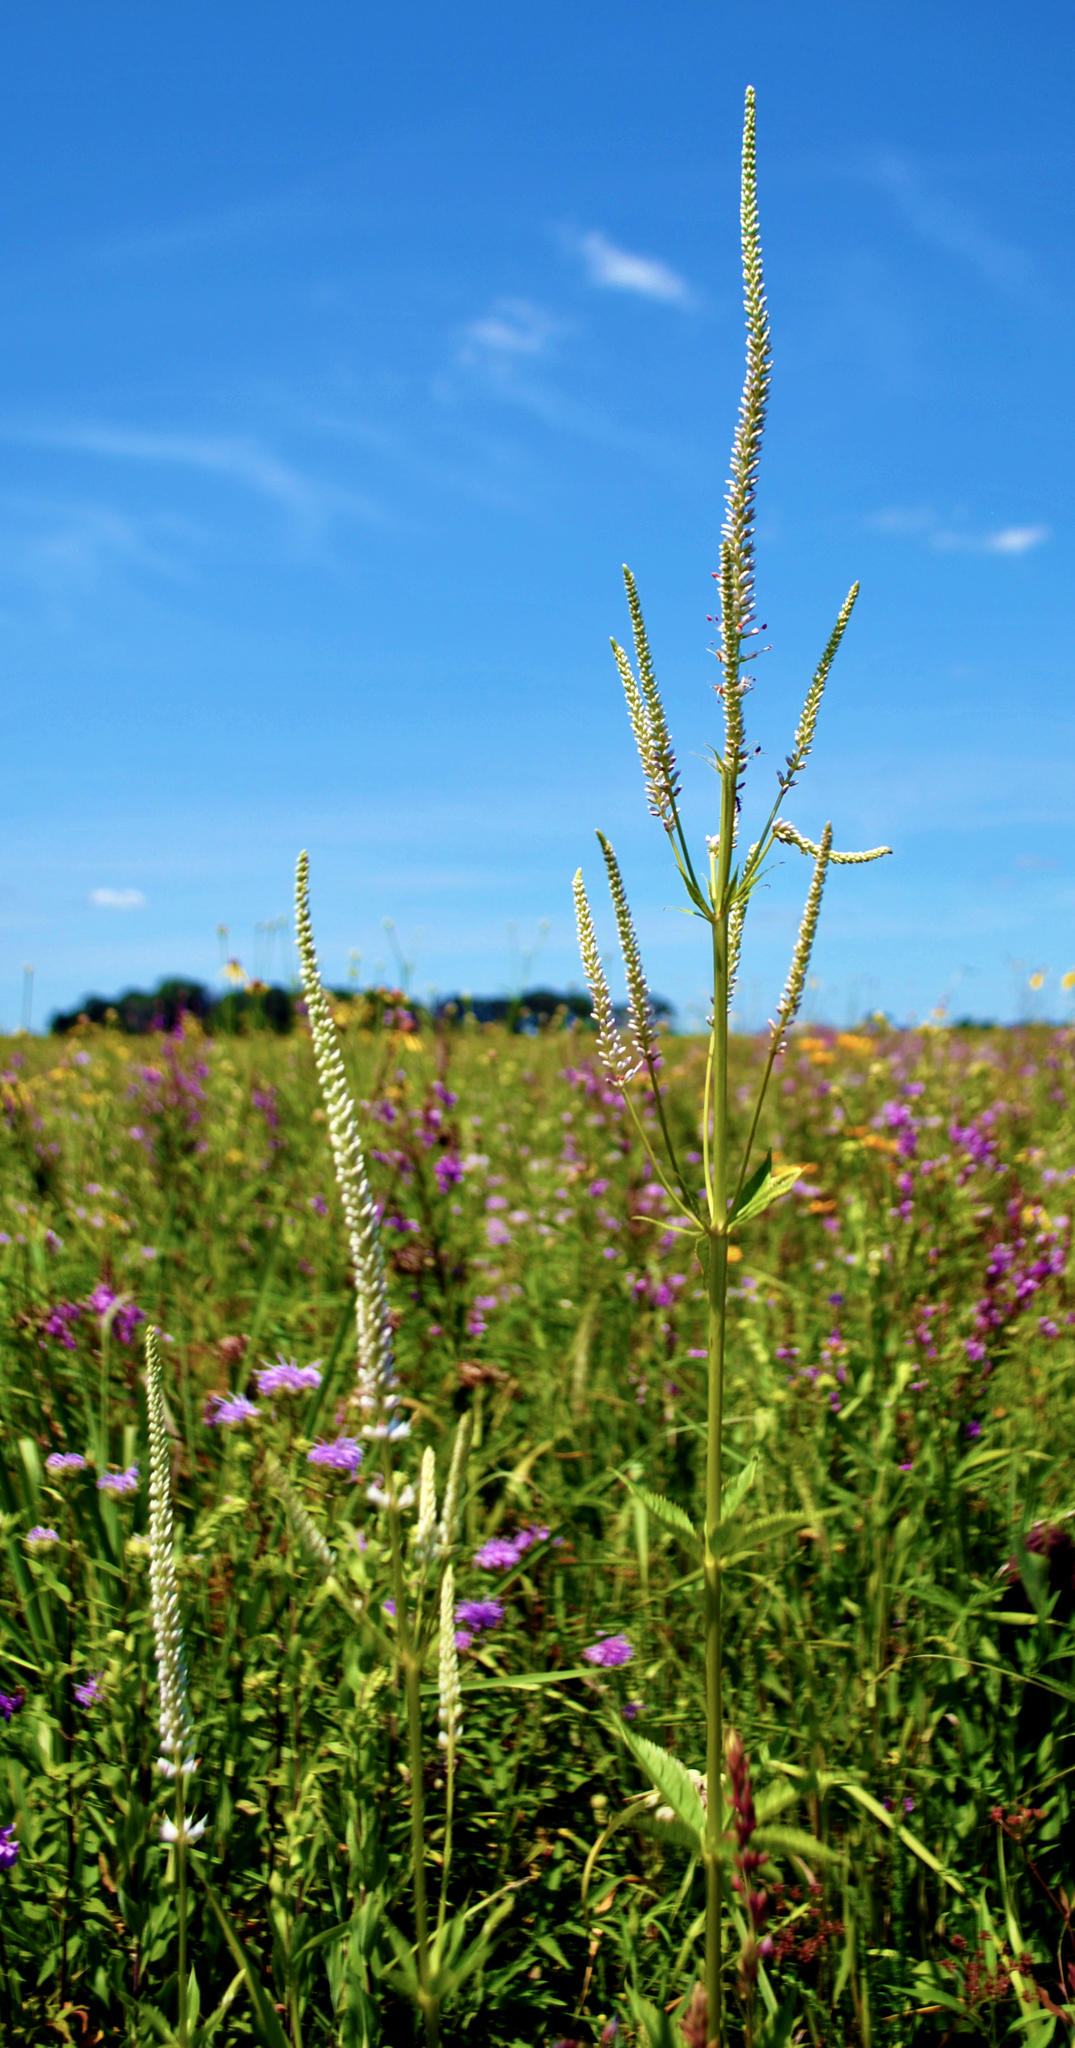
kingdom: Plantae
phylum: Tracheophyta
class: Magnoliopsida
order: Lamiales
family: Plantaginaceae
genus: Veronicastrum
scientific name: Veronicastrum virginicum
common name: Blackroot
